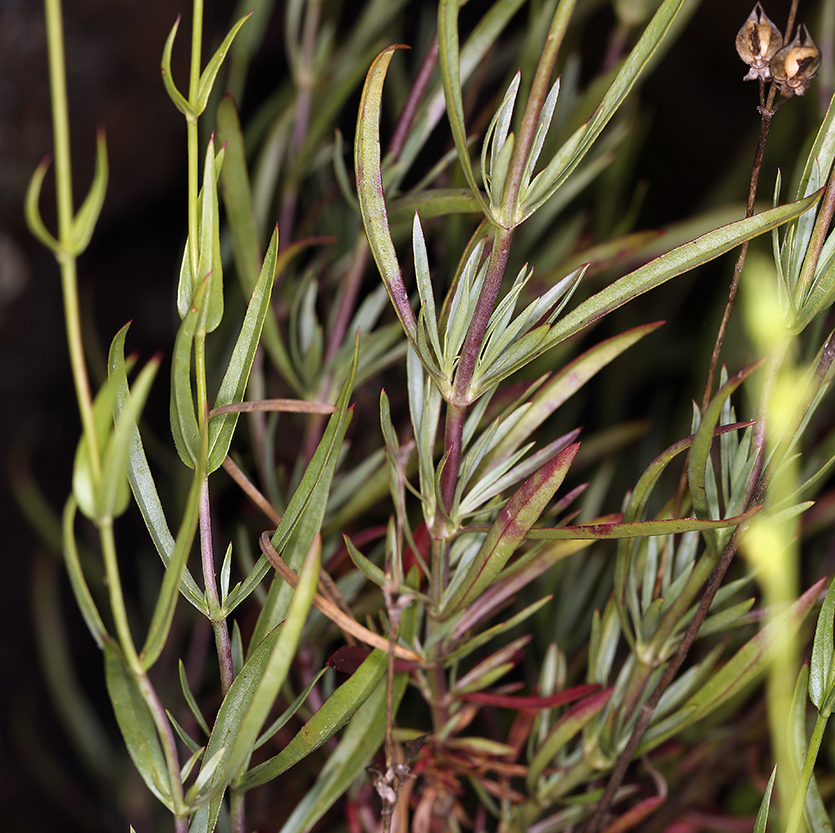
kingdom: Plantae
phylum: Tracheophyta
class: Magnoliopsida
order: Lamiales
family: Plantaginaceae
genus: Penstemon
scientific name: Penstemon heterophyllus
